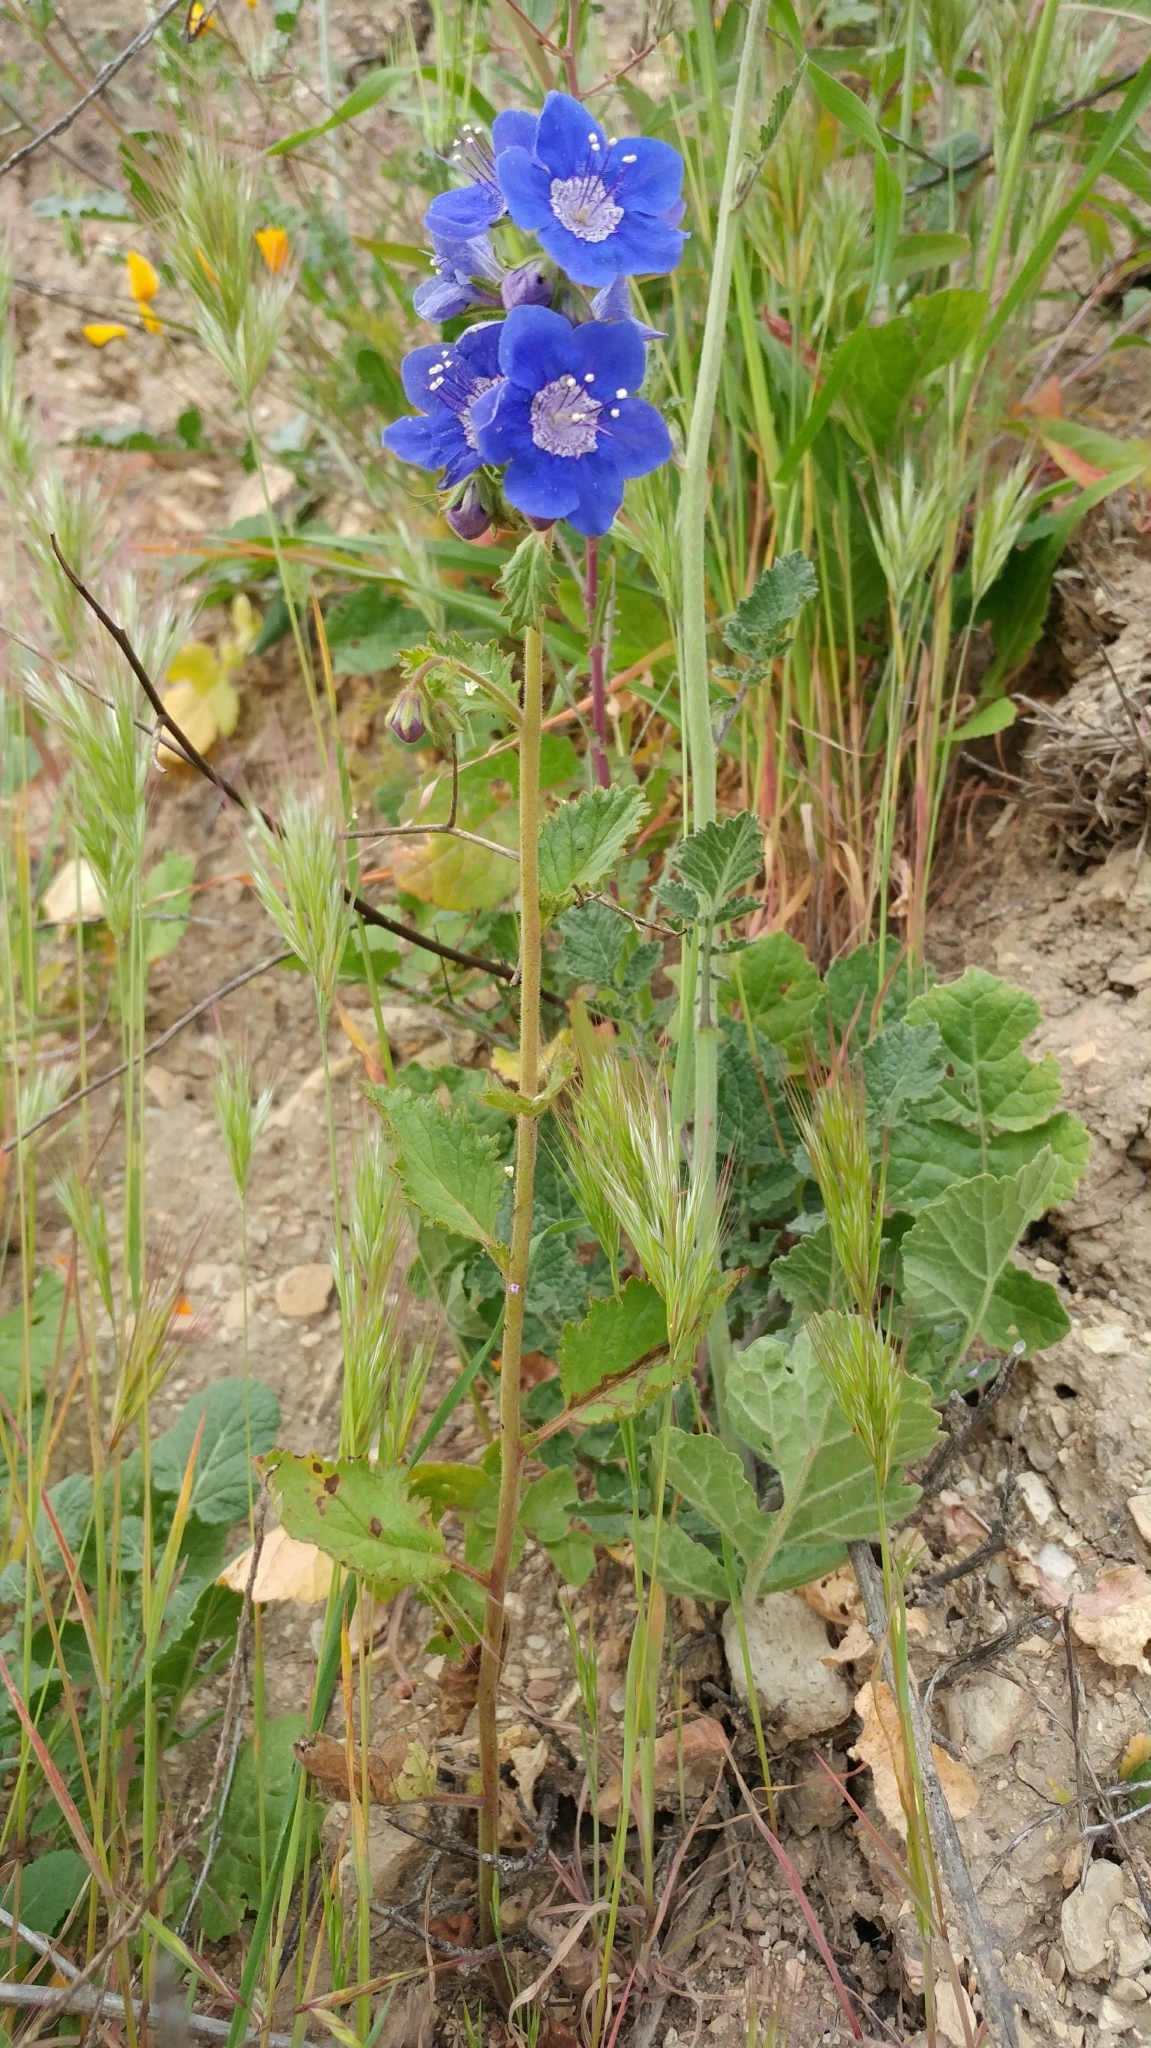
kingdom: Plantae
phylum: Tracheophyta
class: Magnoliopsida
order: Boraginales
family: Hydrophyllaceae
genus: Phacelia
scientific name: Phacelia viscida
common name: Sticky phacelia
